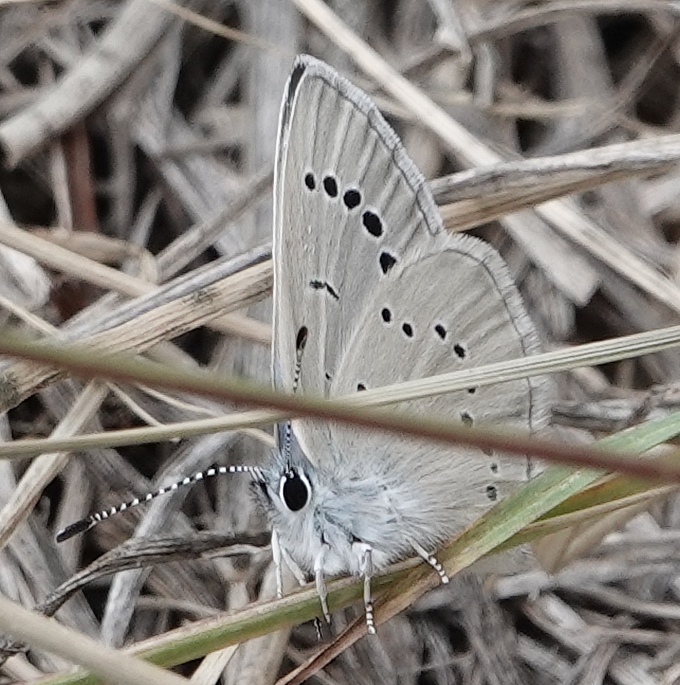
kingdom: Animalia
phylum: Arthropoda
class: Insecta
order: Lepidoptera
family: Lycaenidae
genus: Glaucopsyche
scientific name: Glaucopsyche lygdamus
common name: Silvery blue
